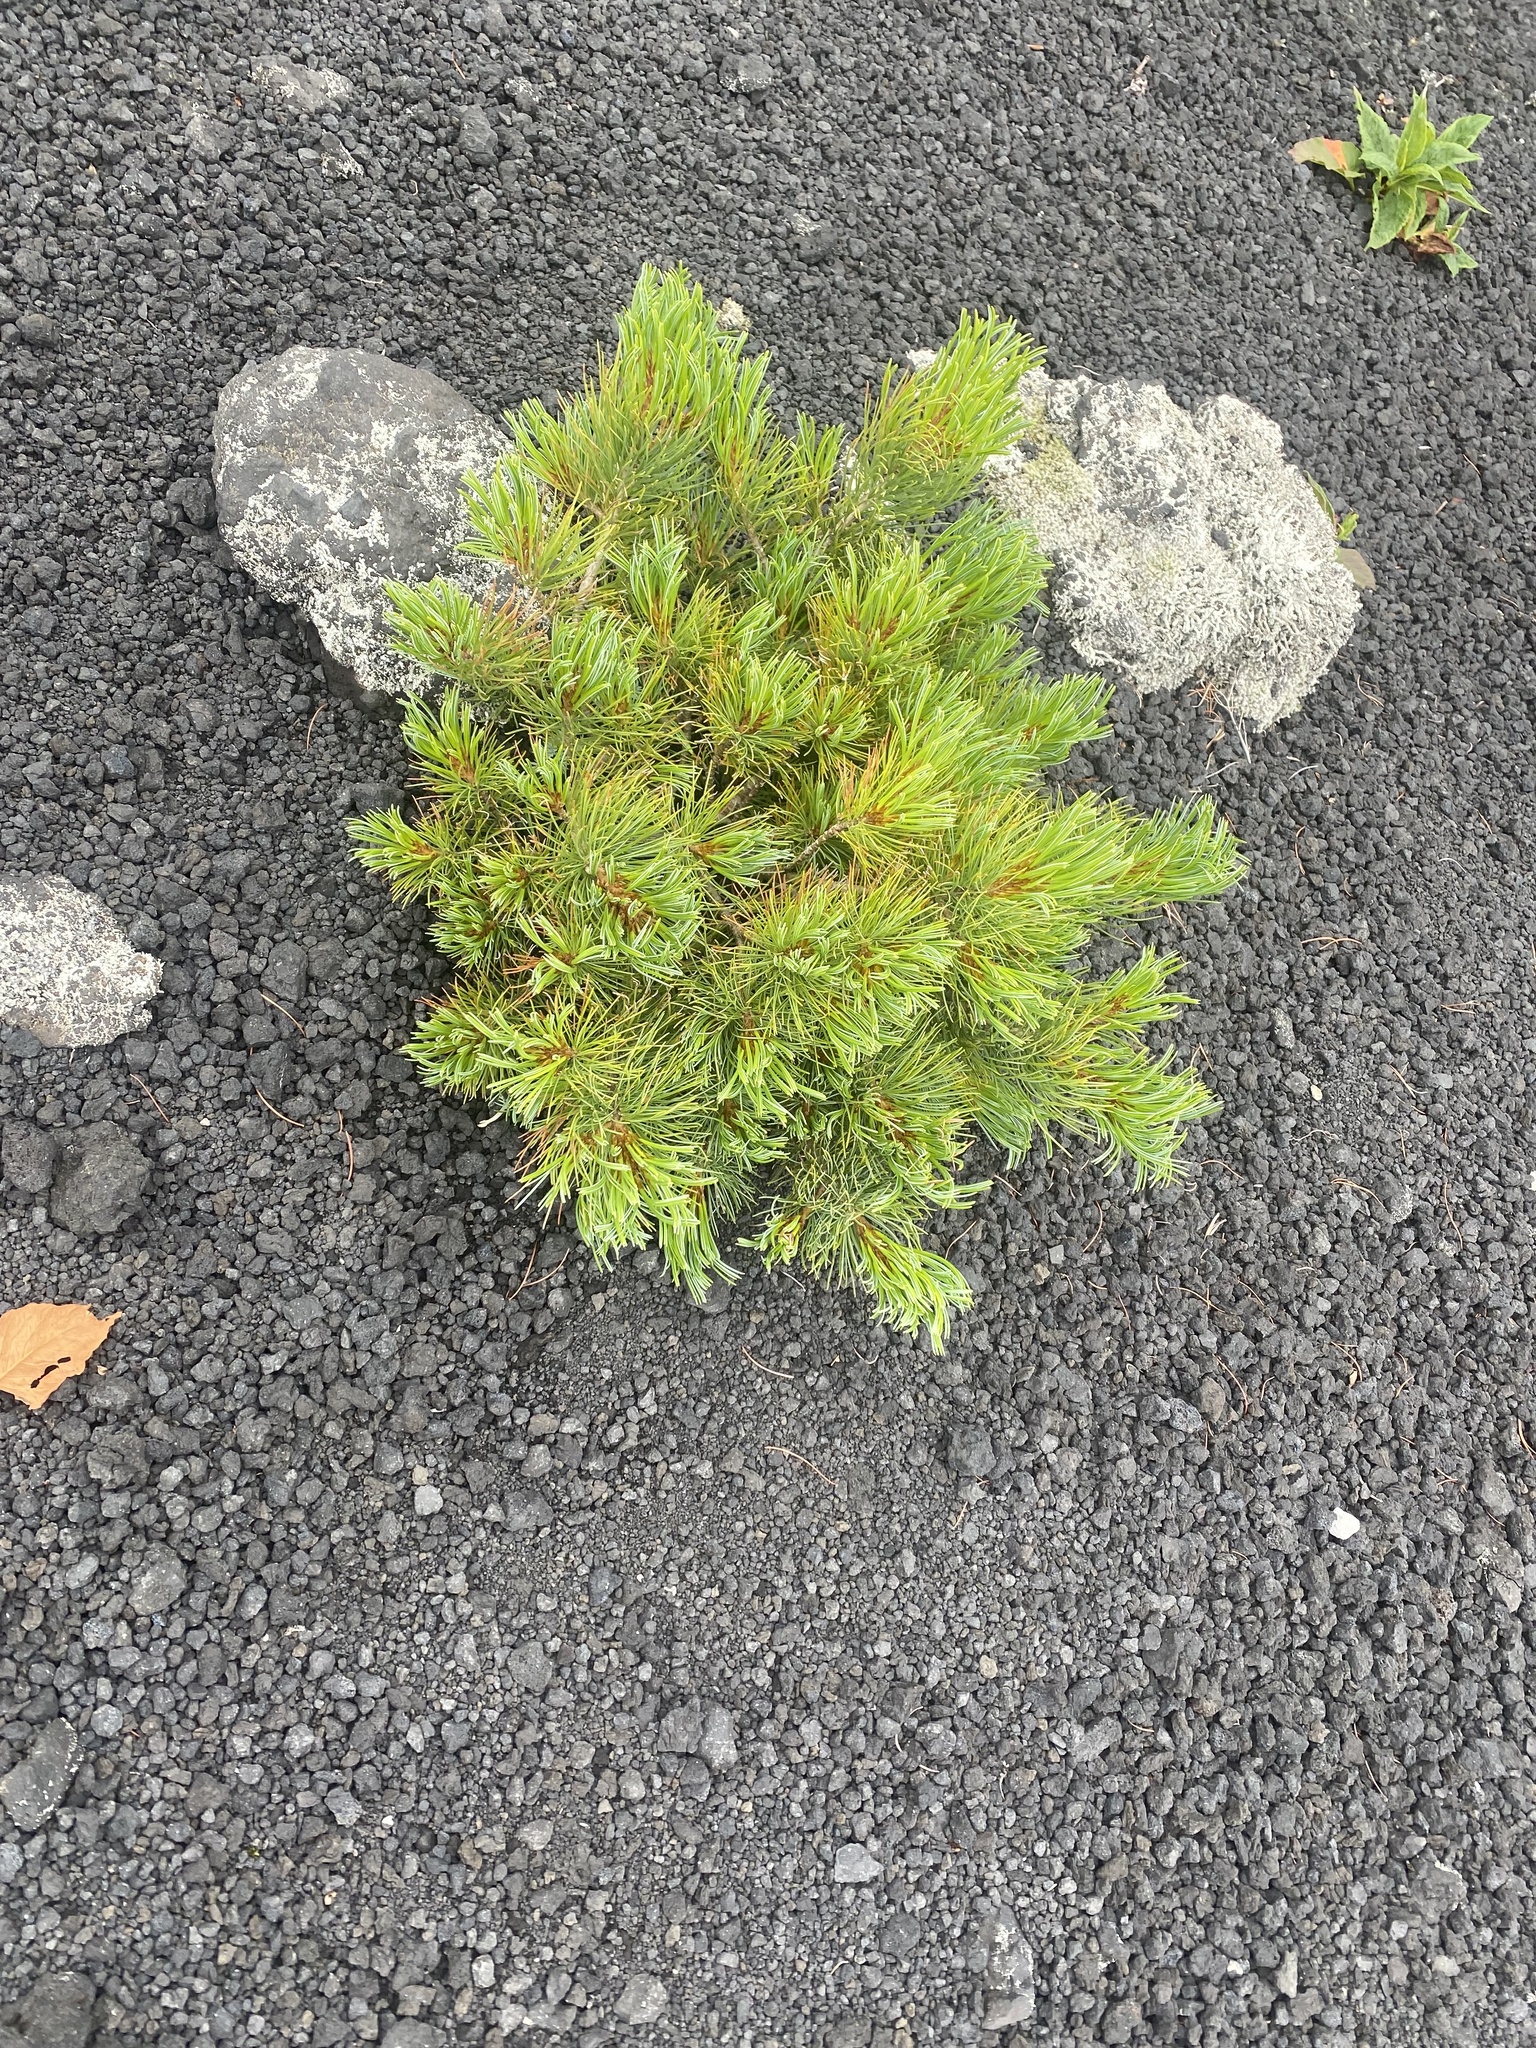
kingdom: Plantae
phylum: Tracheophyta
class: Pinopsida
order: Pinales
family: Pinaceae
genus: Pinus
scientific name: Pinus pumila
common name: Dwarf siberian pine
